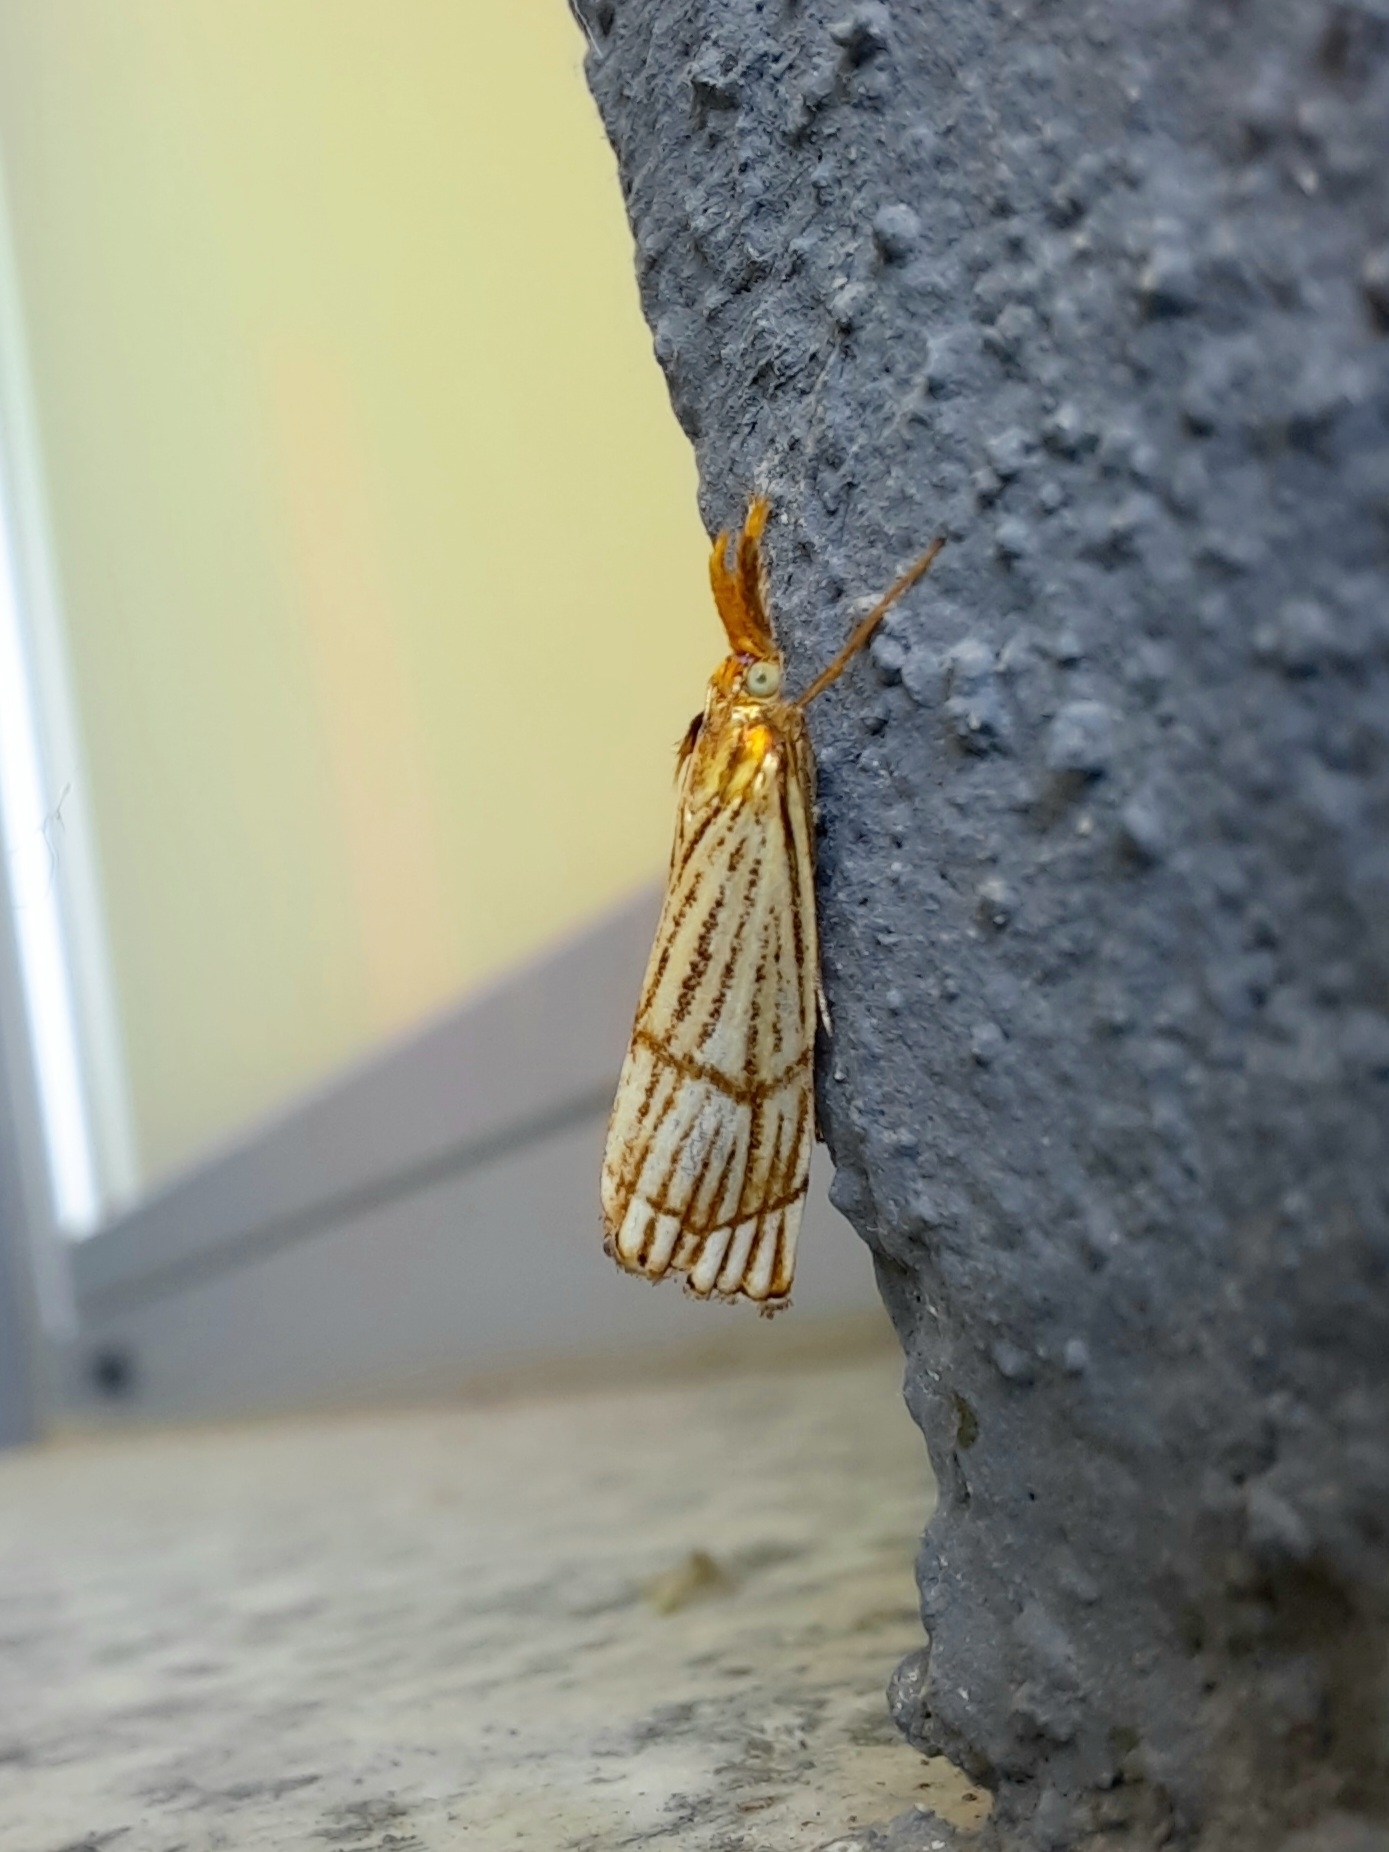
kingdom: Animalia
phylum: Arthropoda
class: Insecta
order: Lepidoptera
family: Crambidae
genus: Chrysocrambus
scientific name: Chrysocrambus linetella
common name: Orange-bar grass-veneer
